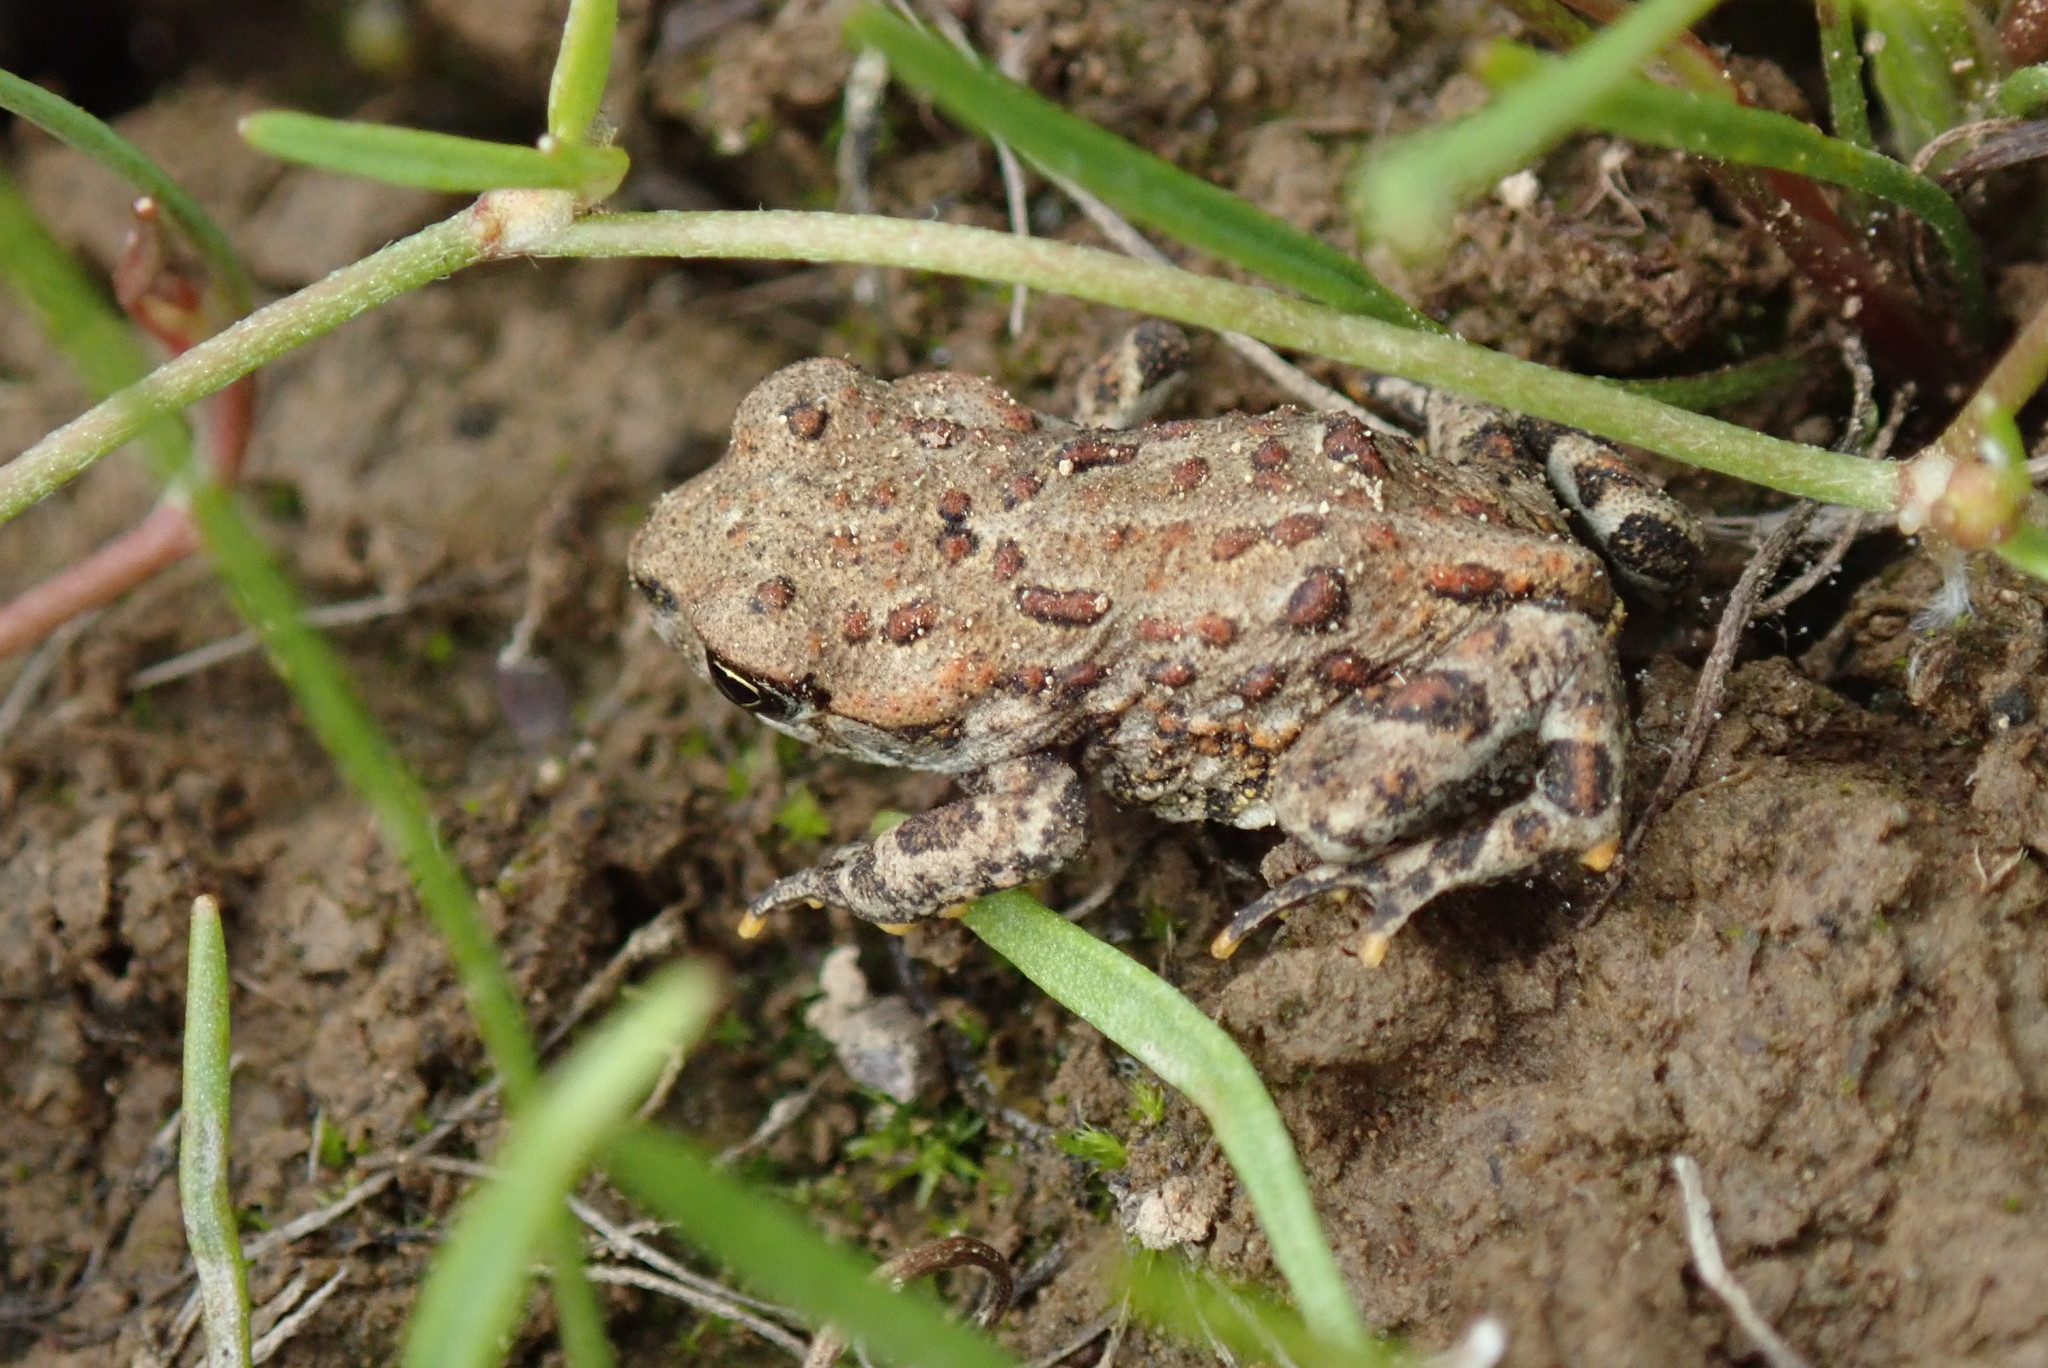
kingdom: Animalia
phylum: Chordata
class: Amphibia
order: Anura
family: Bufonidae
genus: Anaxyrus
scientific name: Anaxyrus boreas
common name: Western toad
